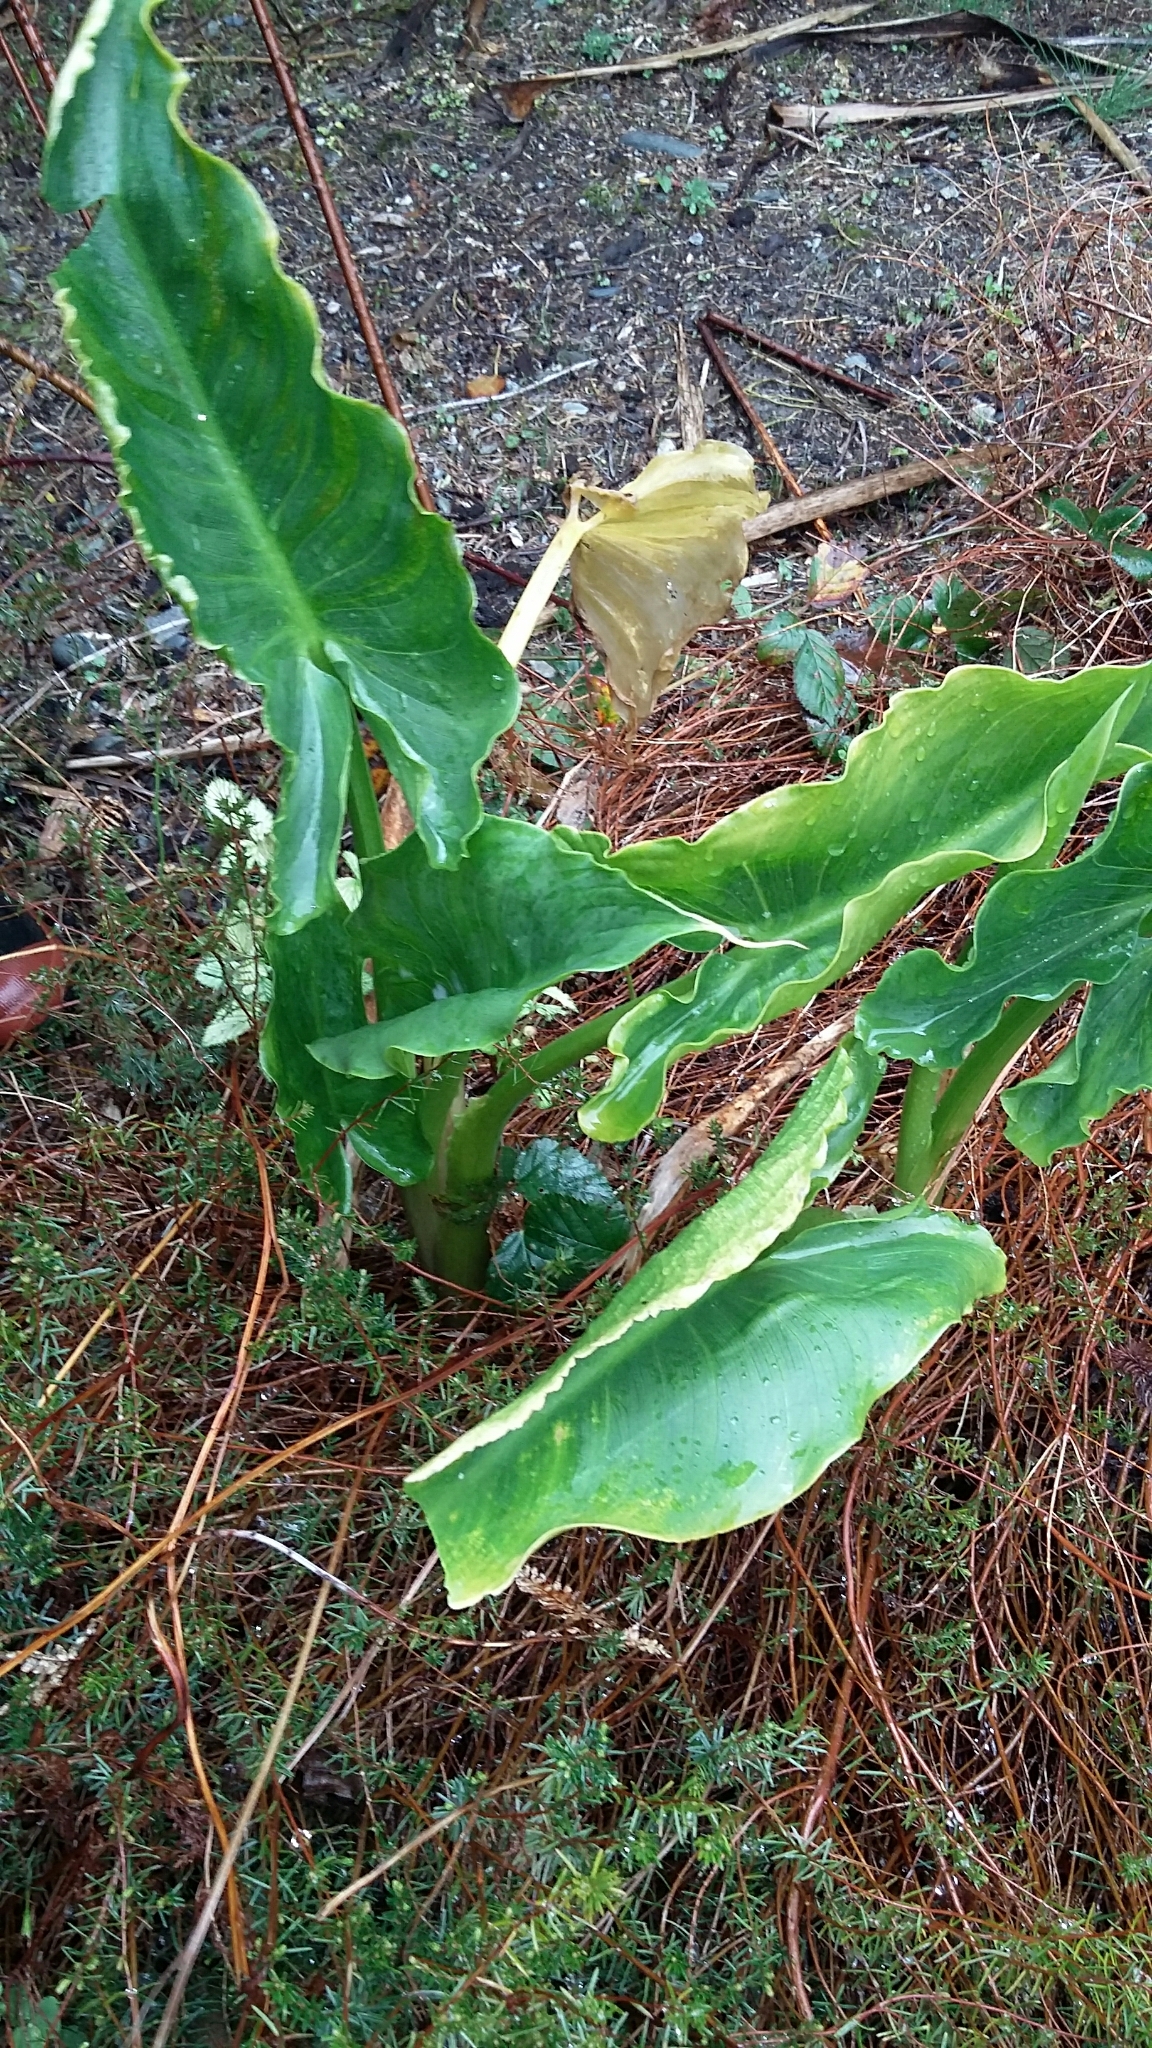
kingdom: Plantae
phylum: Tracheophyta
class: Liliopsida
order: Alismatales
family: Araceae
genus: Zantedeschia
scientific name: Zantedeschia aethiopica
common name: Altar-lily
